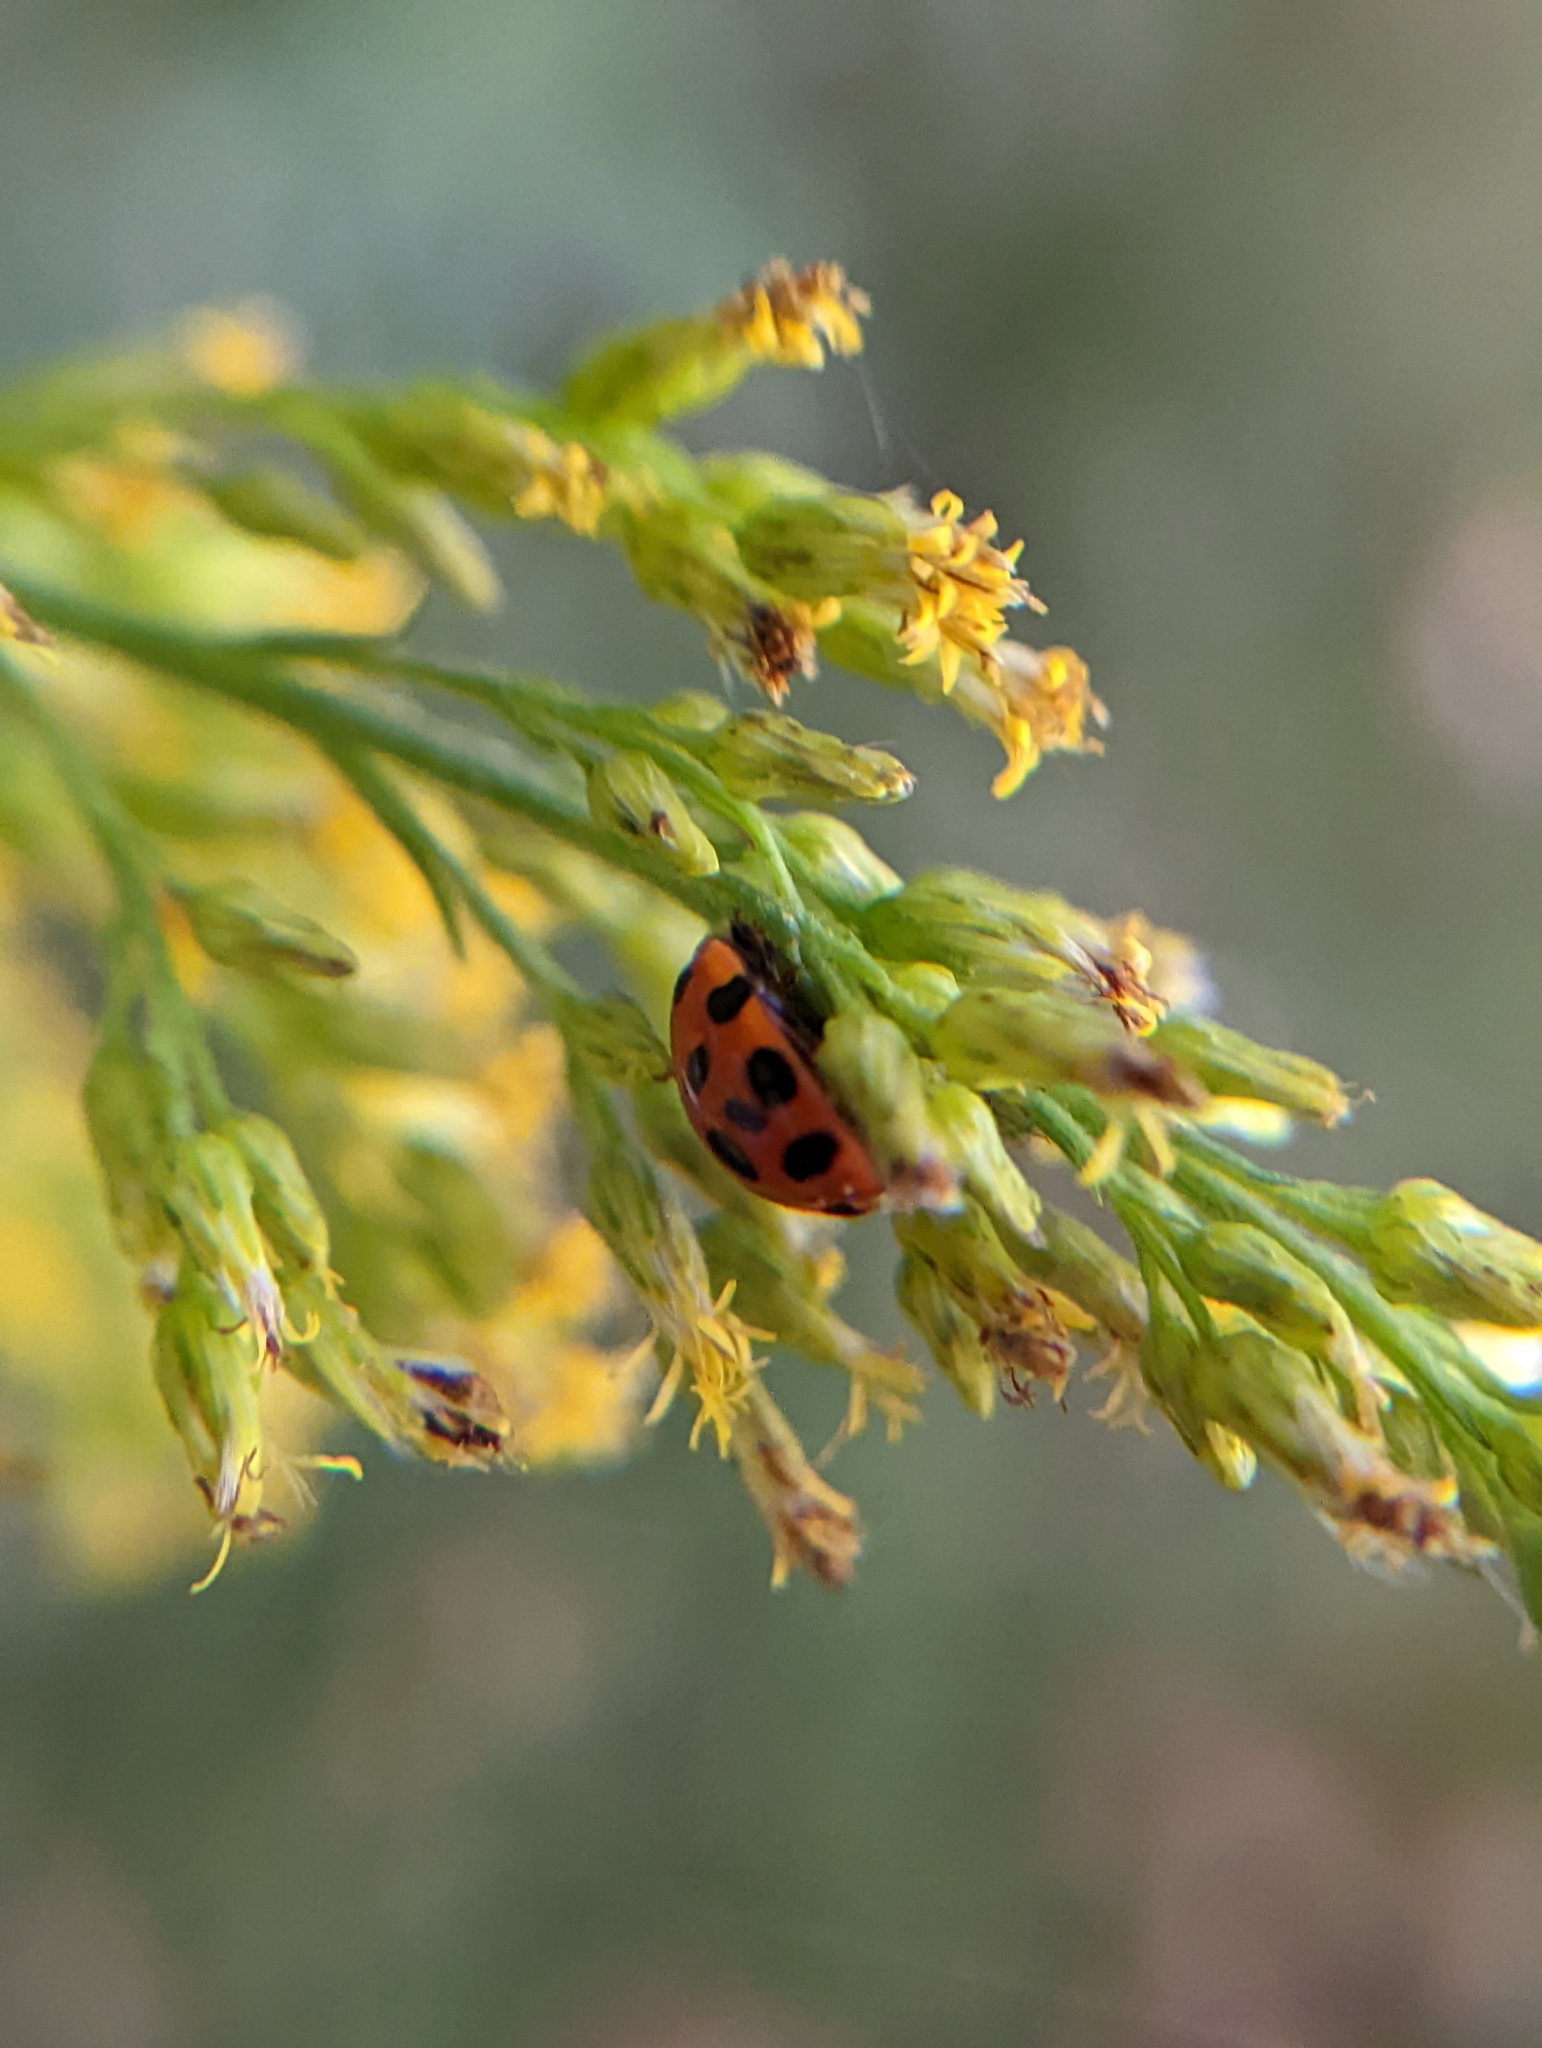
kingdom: Animalia
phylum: Arthropoda
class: Insecta
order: Coleoptera
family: Coccinellidae
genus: Harmonia
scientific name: Harmonia axyridis
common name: Harlequin ladybird
